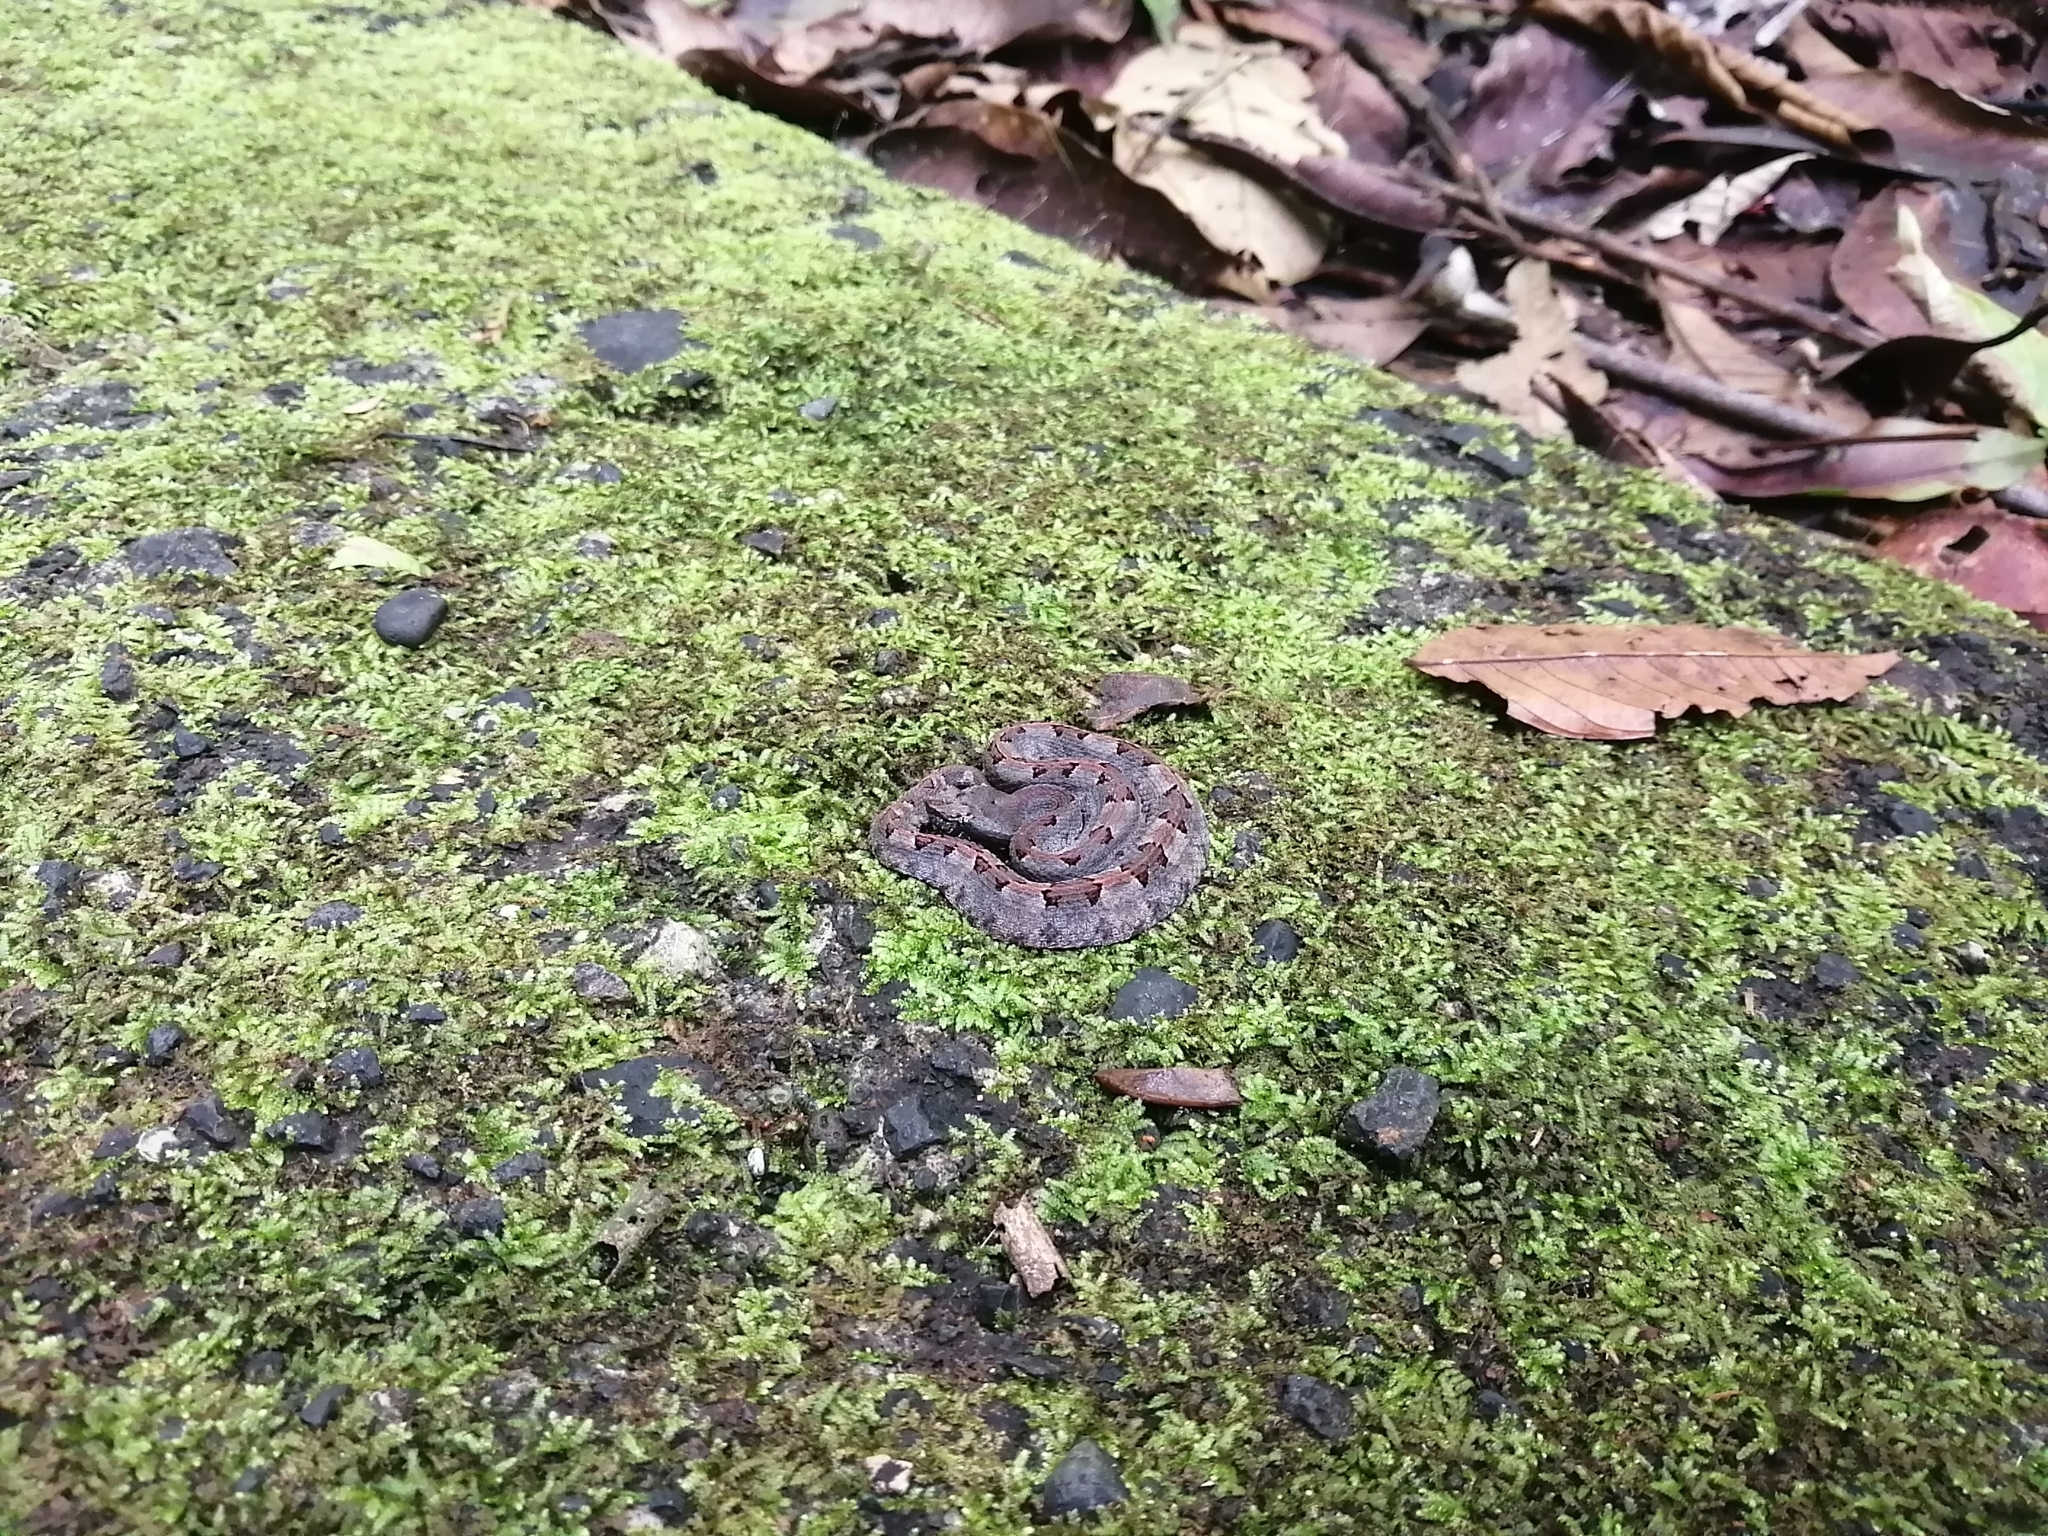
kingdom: Animalia
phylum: Chordata
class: Squamata
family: Viperidae
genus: Porthidium
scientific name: Porthidium nasutum
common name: Hognosed pit viper
